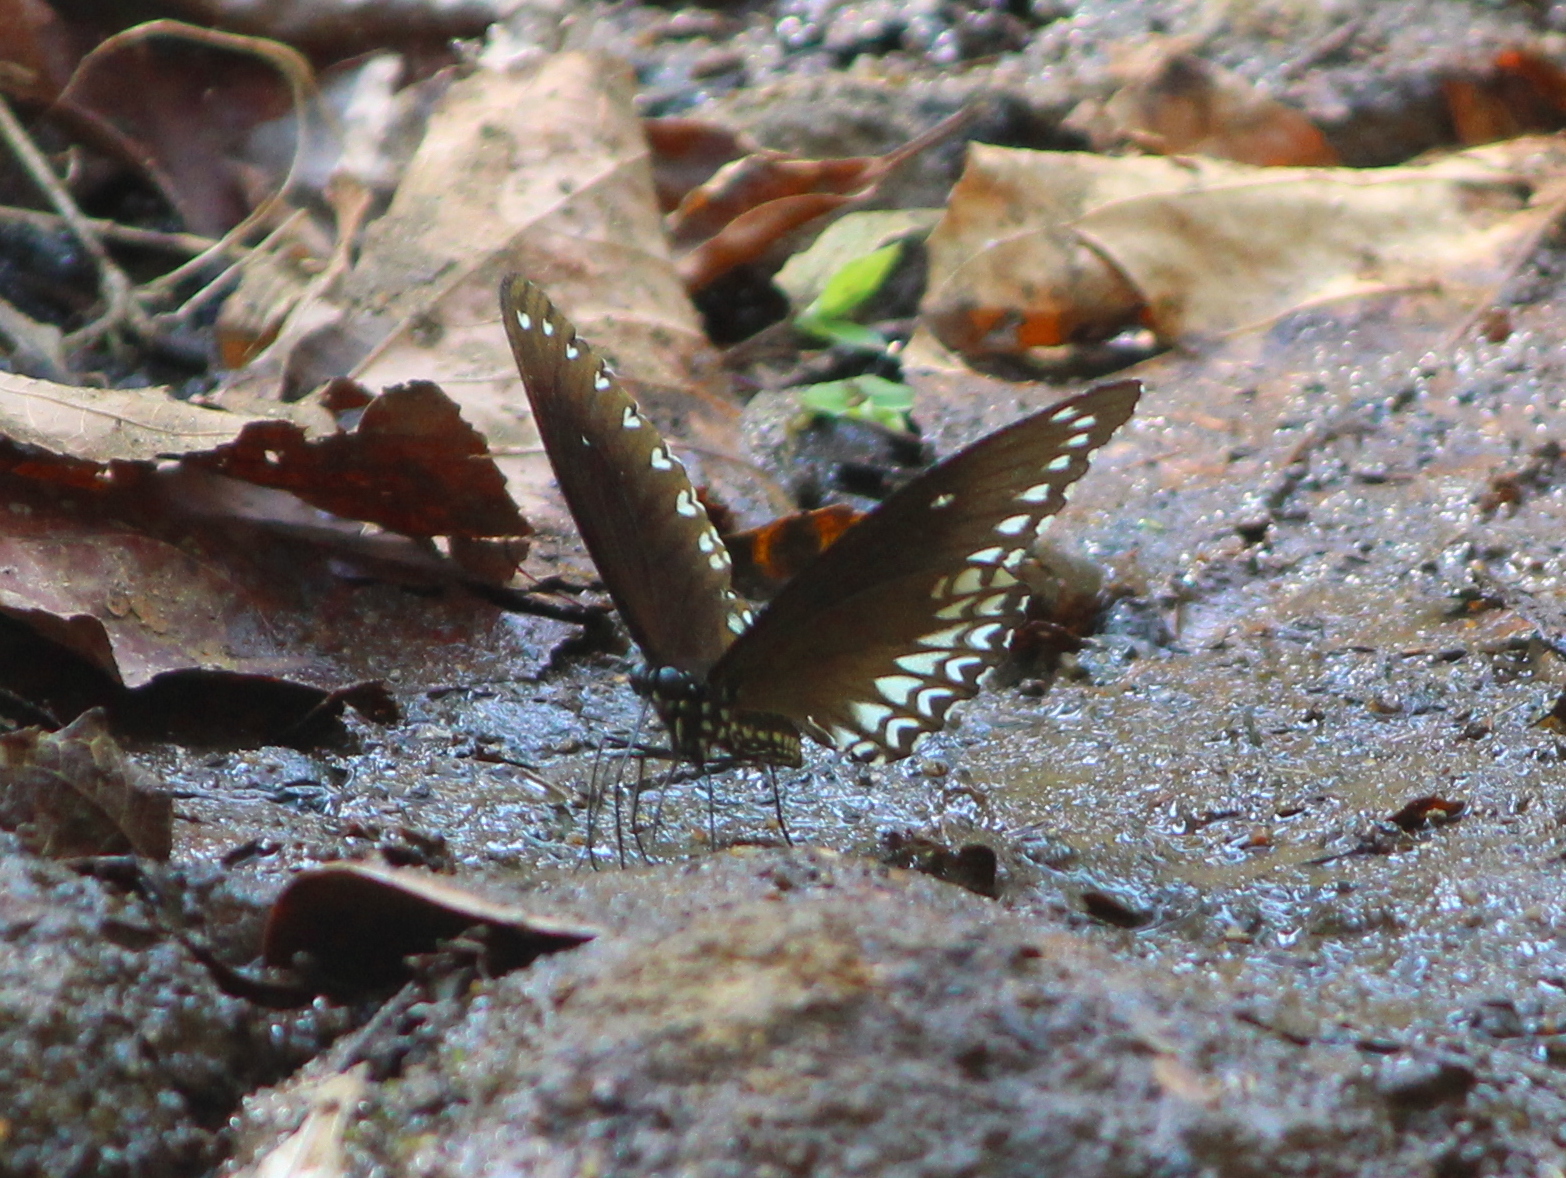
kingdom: Animalia
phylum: Arthropoda
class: Insecta
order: Lepidoptera
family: Papilionidae
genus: Papilio
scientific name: Papilio dravidarum
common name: Malabar raven
